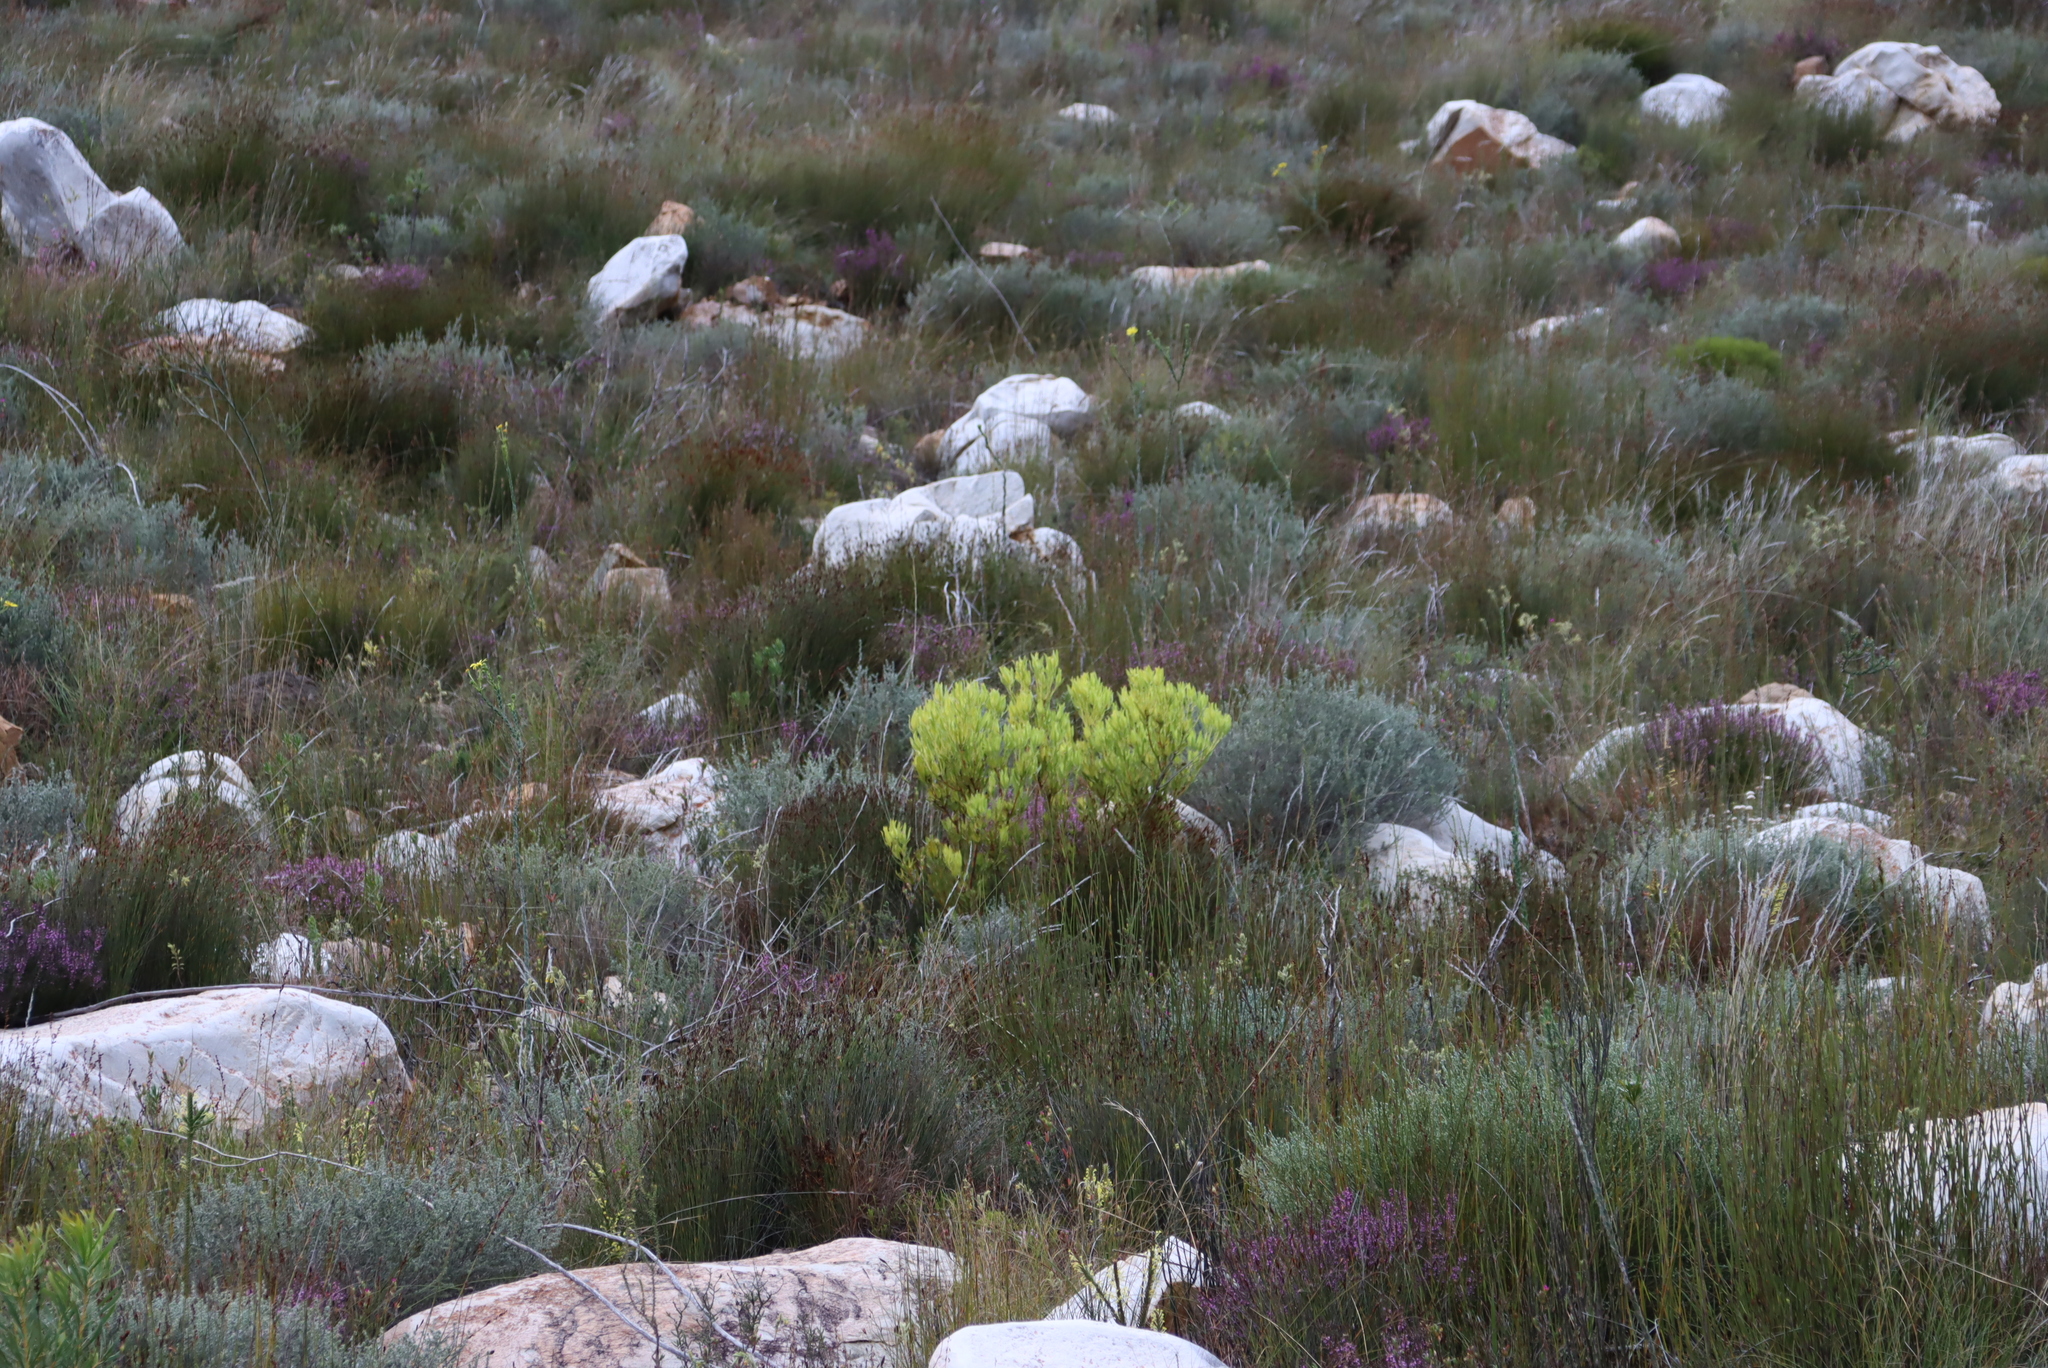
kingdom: Plantae
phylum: Tracheophyta
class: Magnoliopsida
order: Proteales
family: Proteaceae
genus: Leucadendron
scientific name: Leucadendron salignum
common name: Common sunshine conebush
